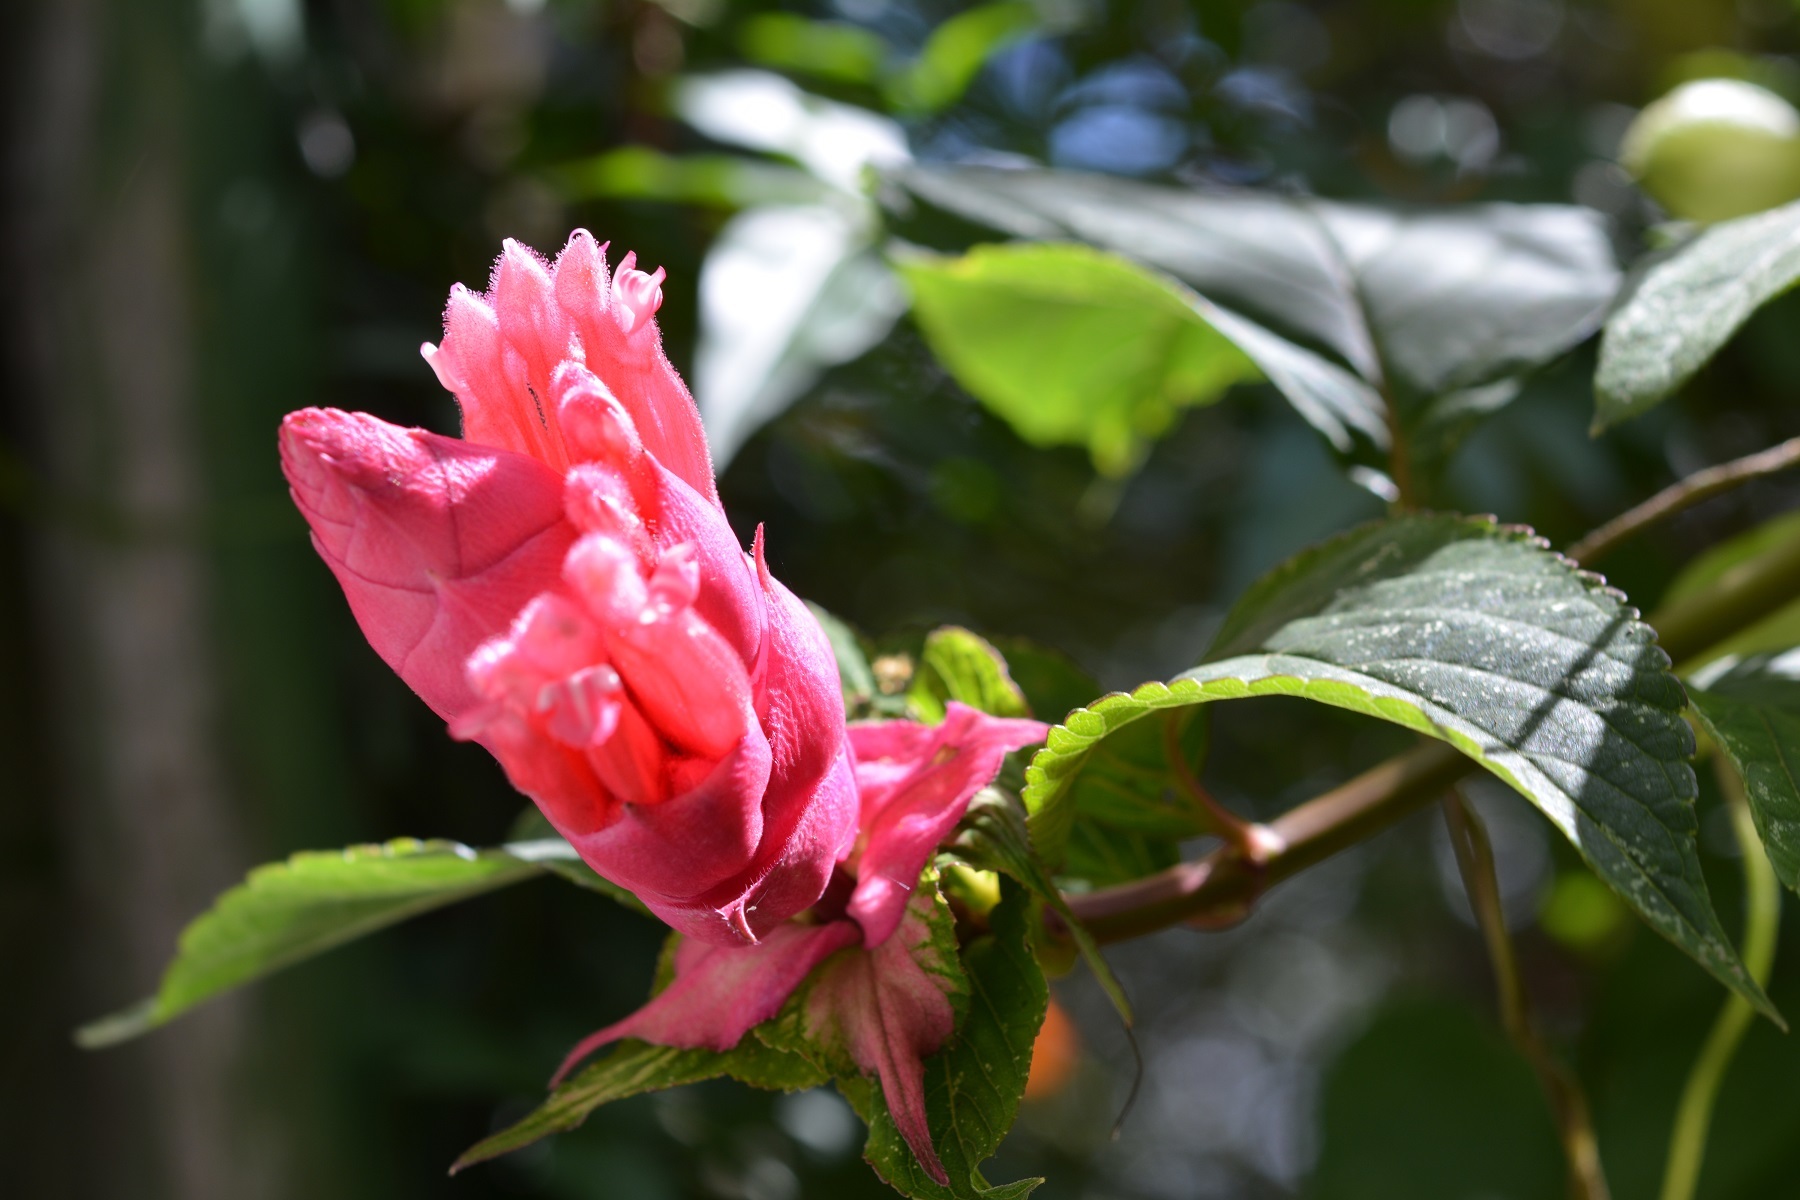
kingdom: Plantae
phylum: Tracheophyta
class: Magnoliopsida
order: Lamiales
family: Lamiaceae
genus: Salvia
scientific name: Salvia wagneriana
